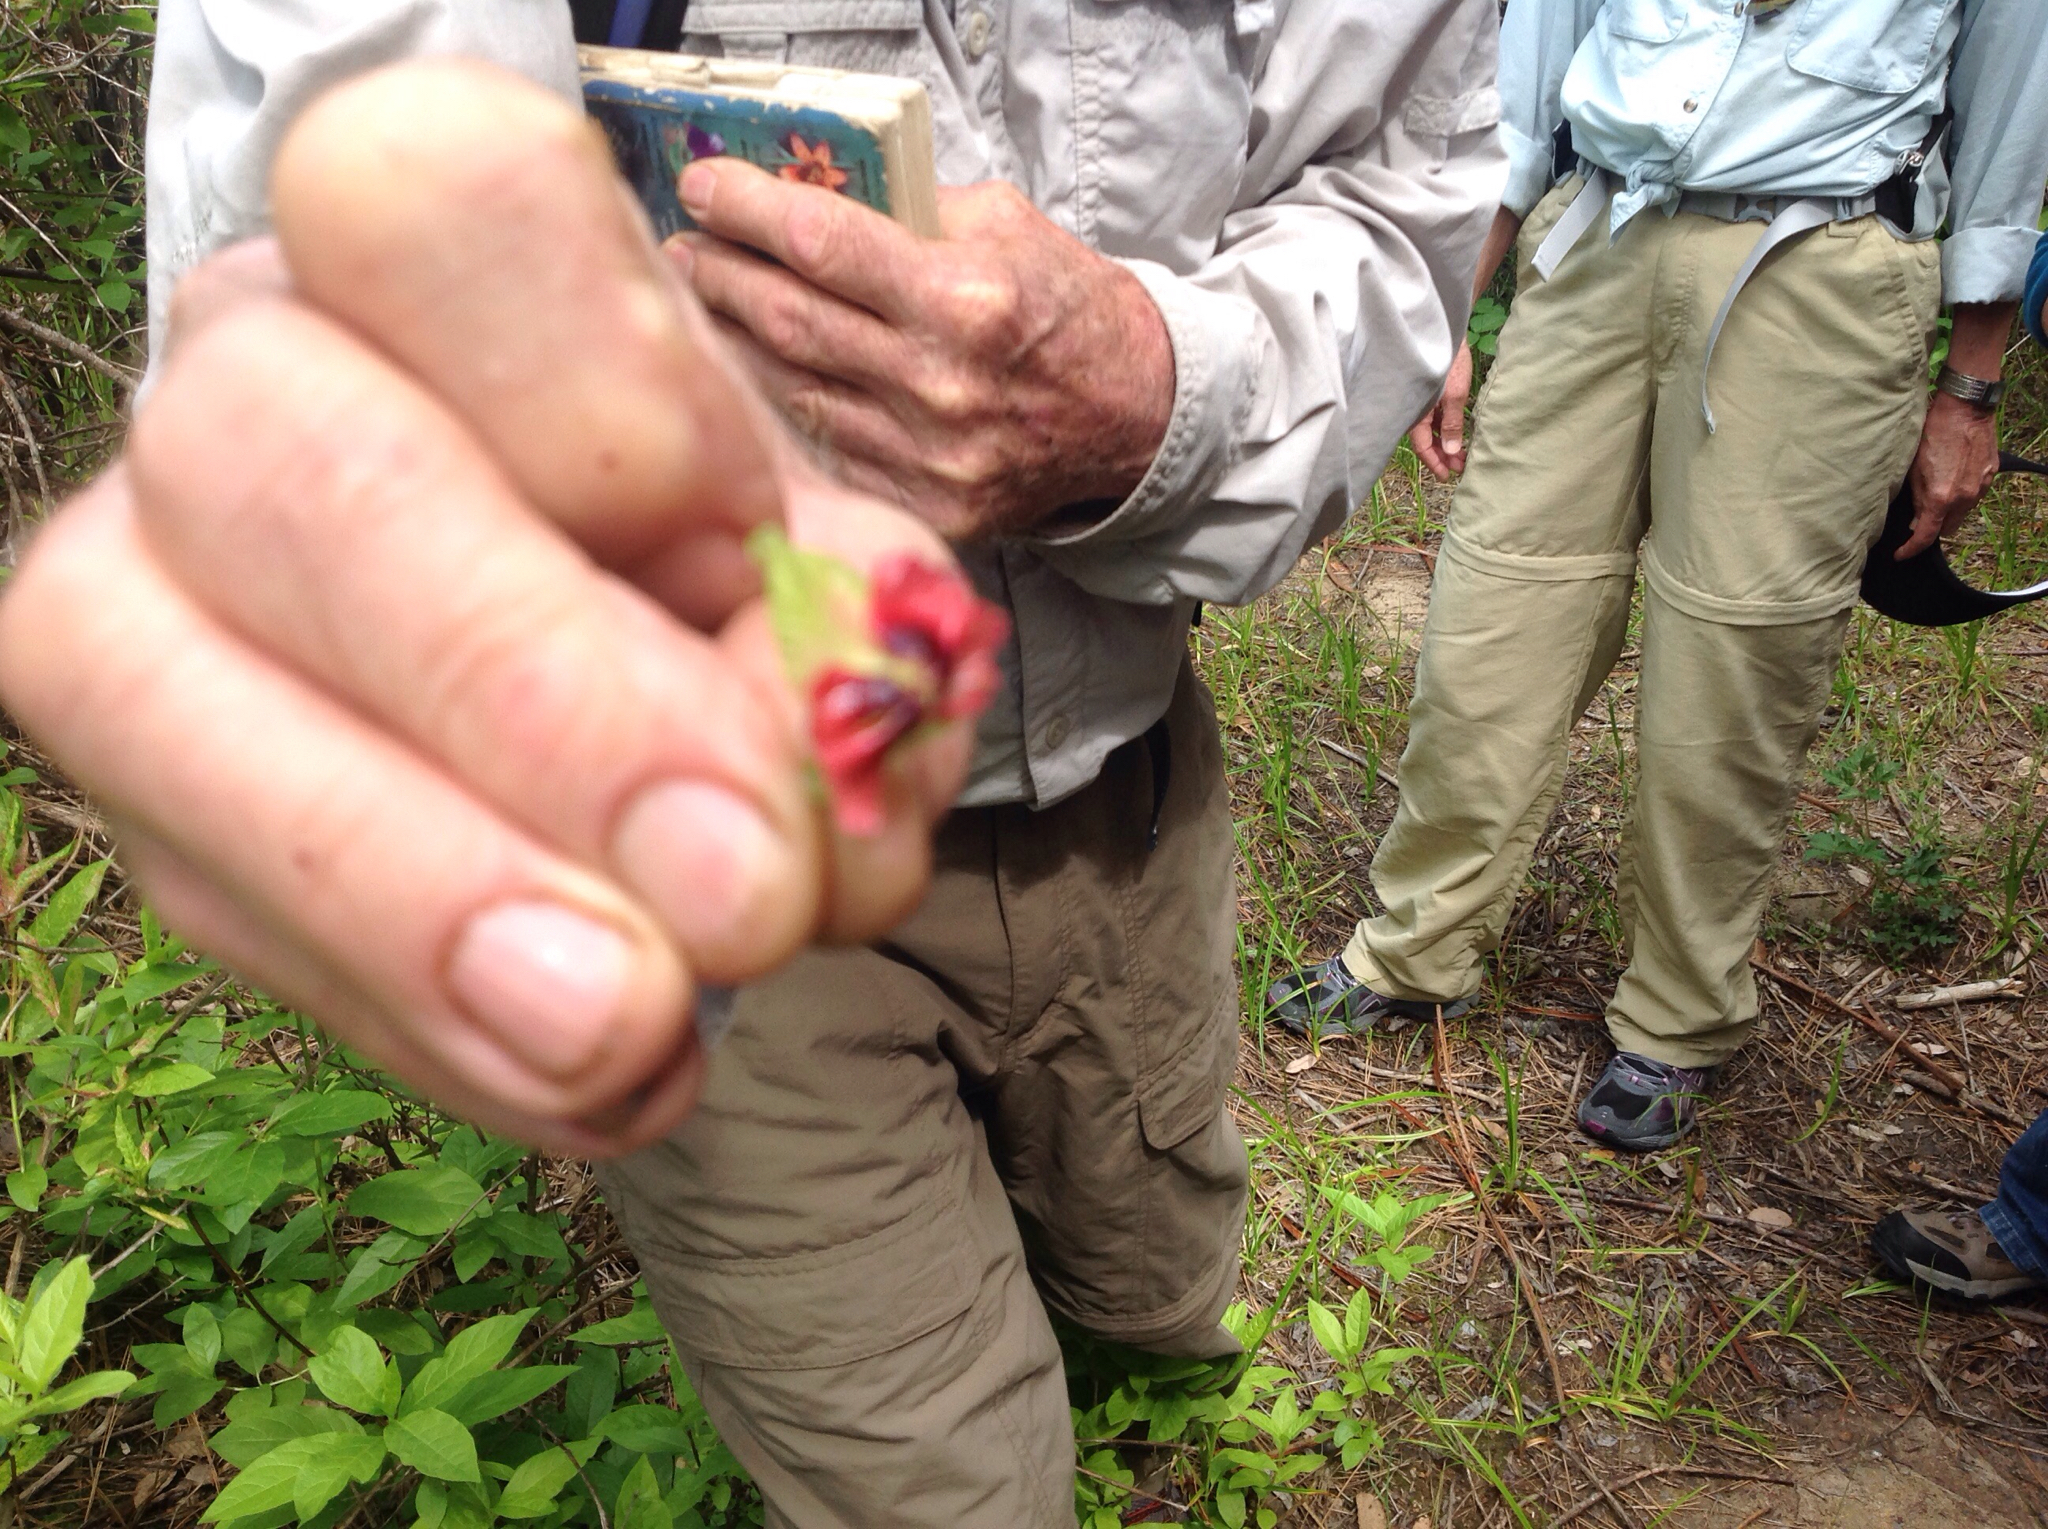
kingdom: Plantae
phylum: Tracheophyta
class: Magnoliopsida
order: Dipsacales
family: Caprifoliaceae
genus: Lonicera
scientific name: Lonicera involucrata
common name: Californian honeysuckle
